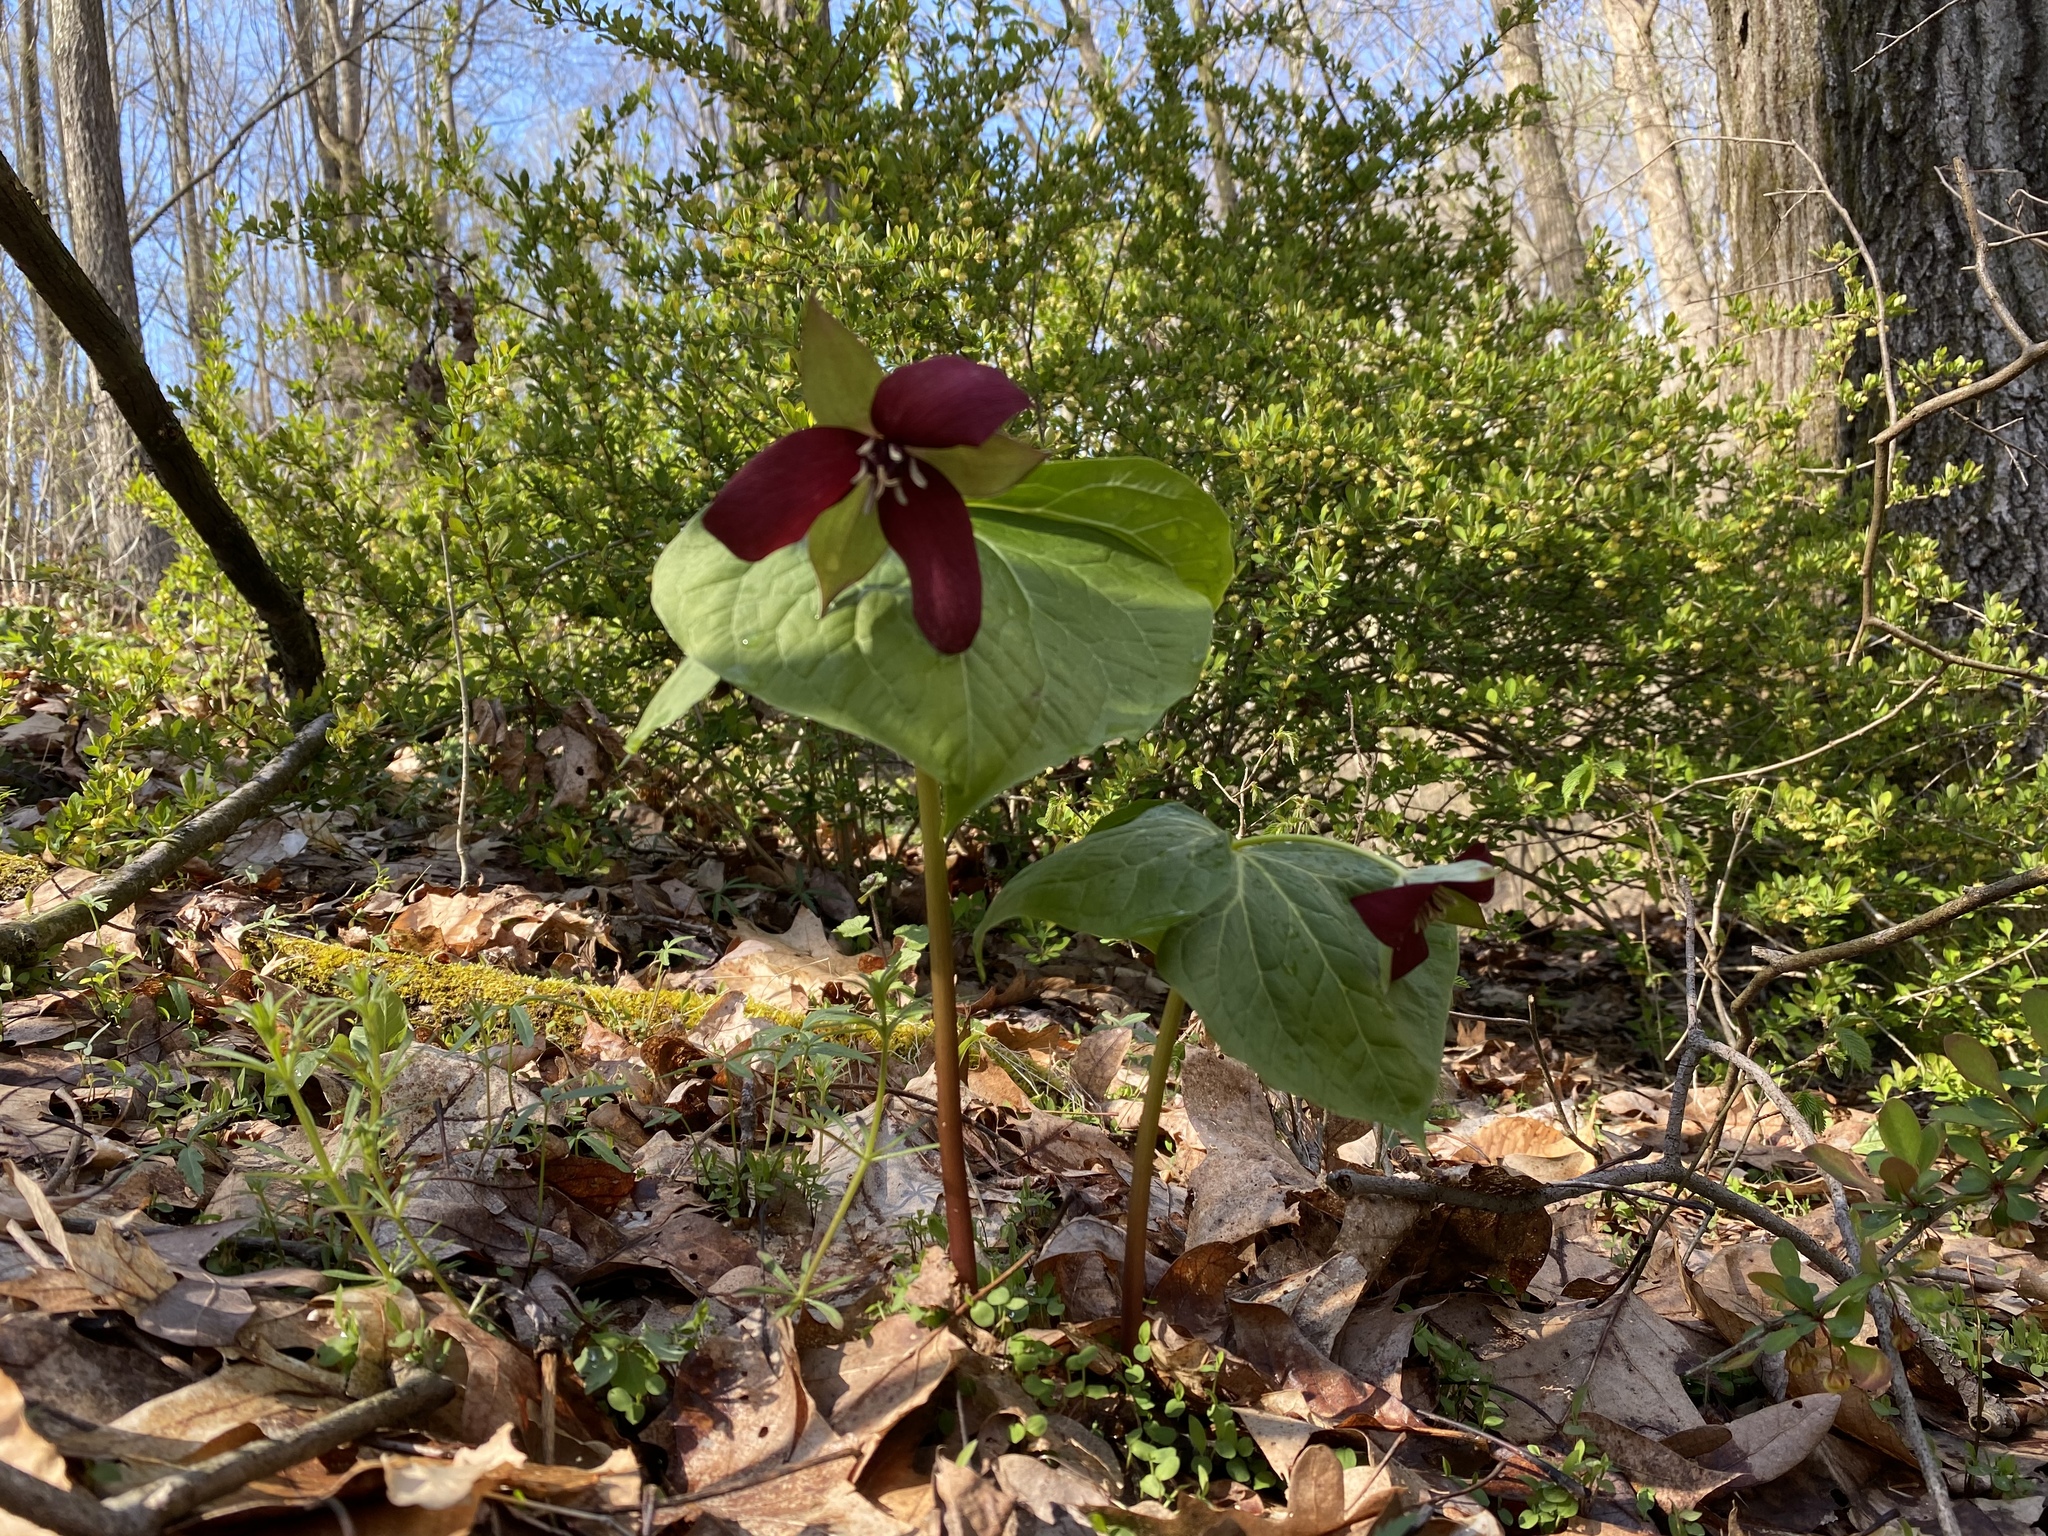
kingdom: Plantae
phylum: Tracheophyta
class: Liliopsida
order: Liliales
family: Melanthiaceae
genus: Trillium
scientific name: Trillium erectum
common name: Purple trillium
